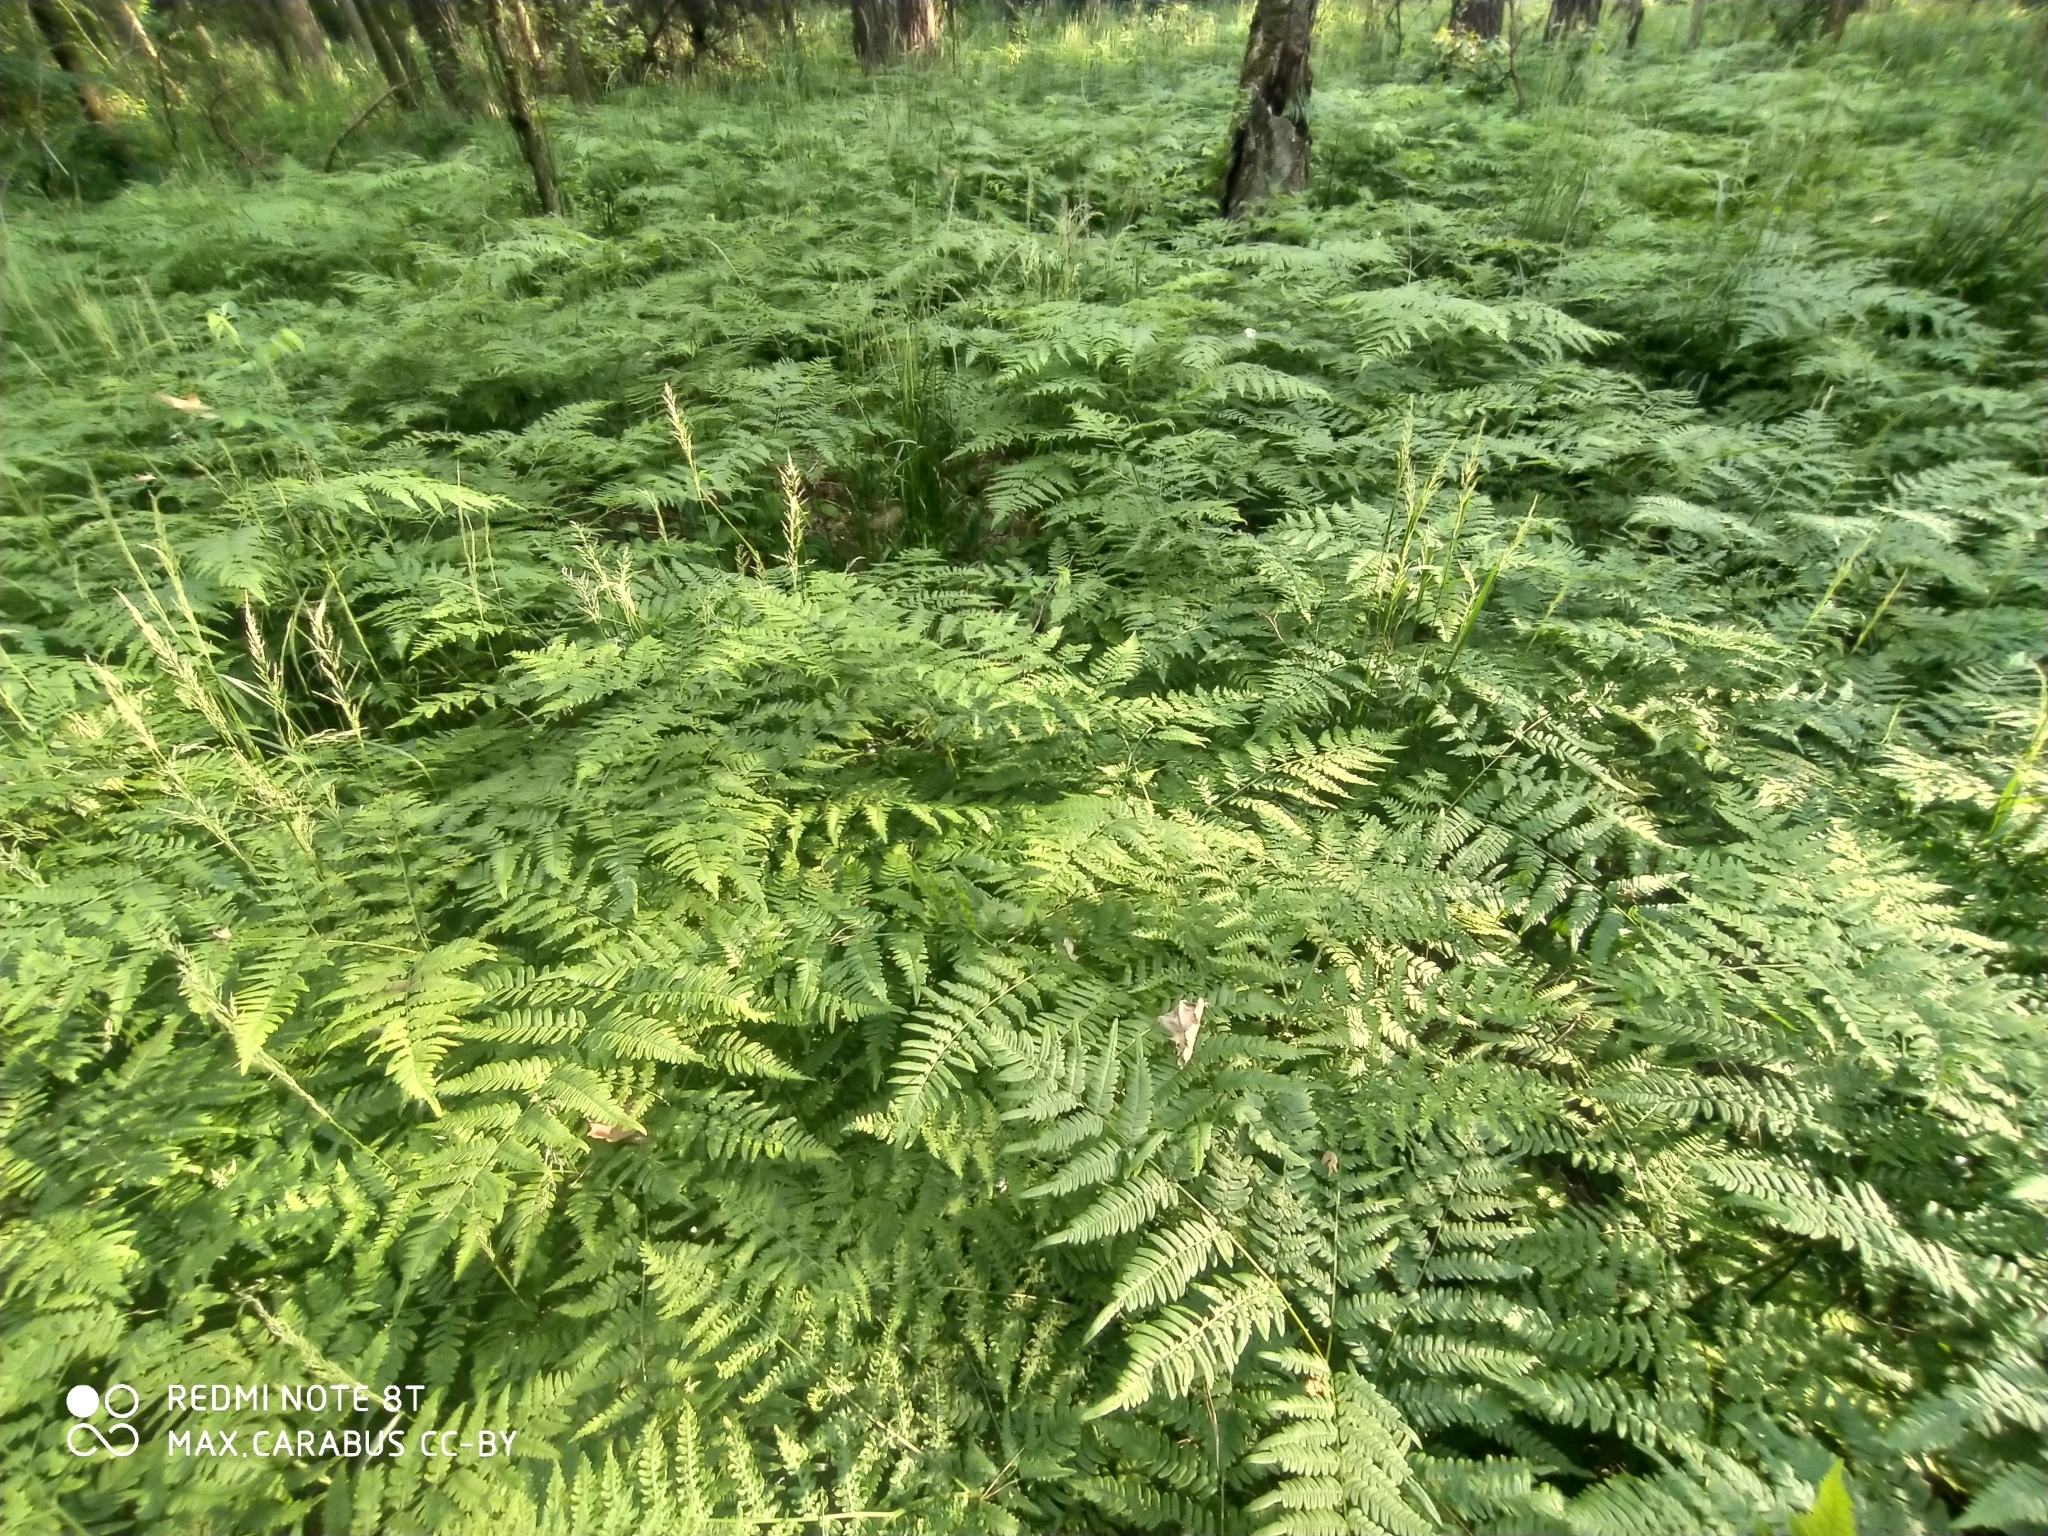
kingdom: Plantae
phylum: Tracheophyta
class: Polypodiopsida
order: Polypodiales
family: Dennstaedtiaceae
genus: Pteridium
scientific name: Pteridium aquilinum
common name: Bracken
